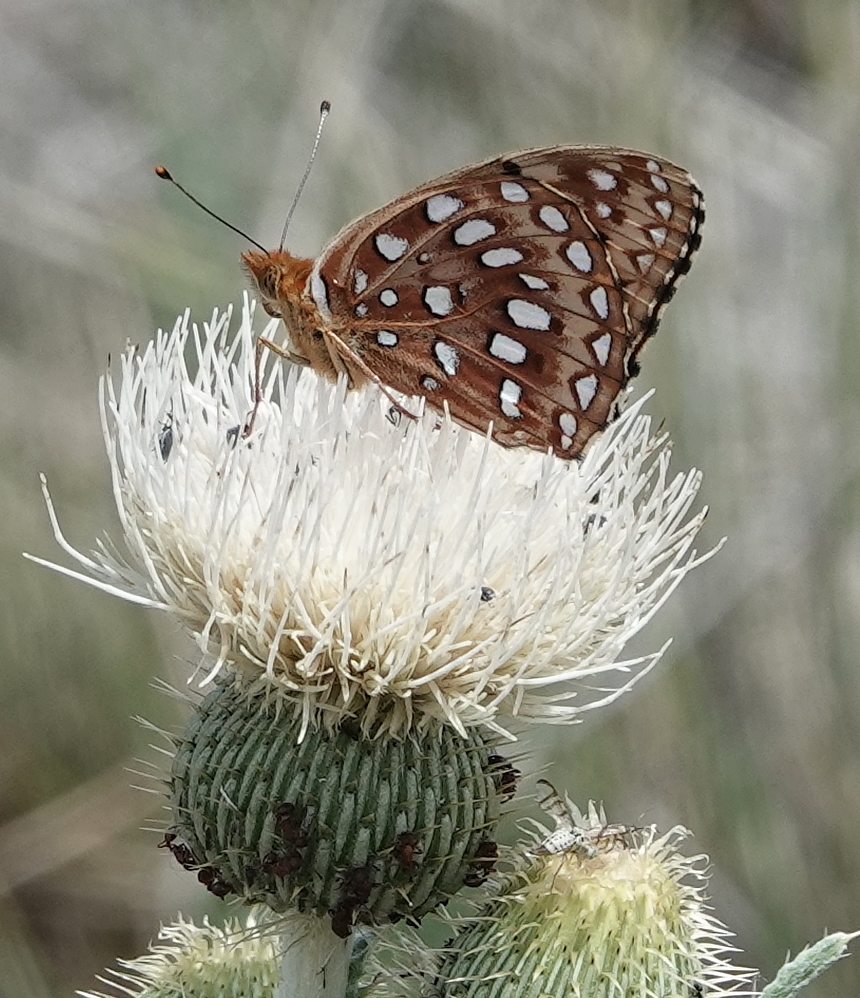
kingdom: Animalia
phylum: Arthropoda
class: Insecta
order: Lepidoptera
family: Nymphalidae
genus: Speyeria
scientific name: Speyeria aphrodite
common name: Aphrodite friitllary
